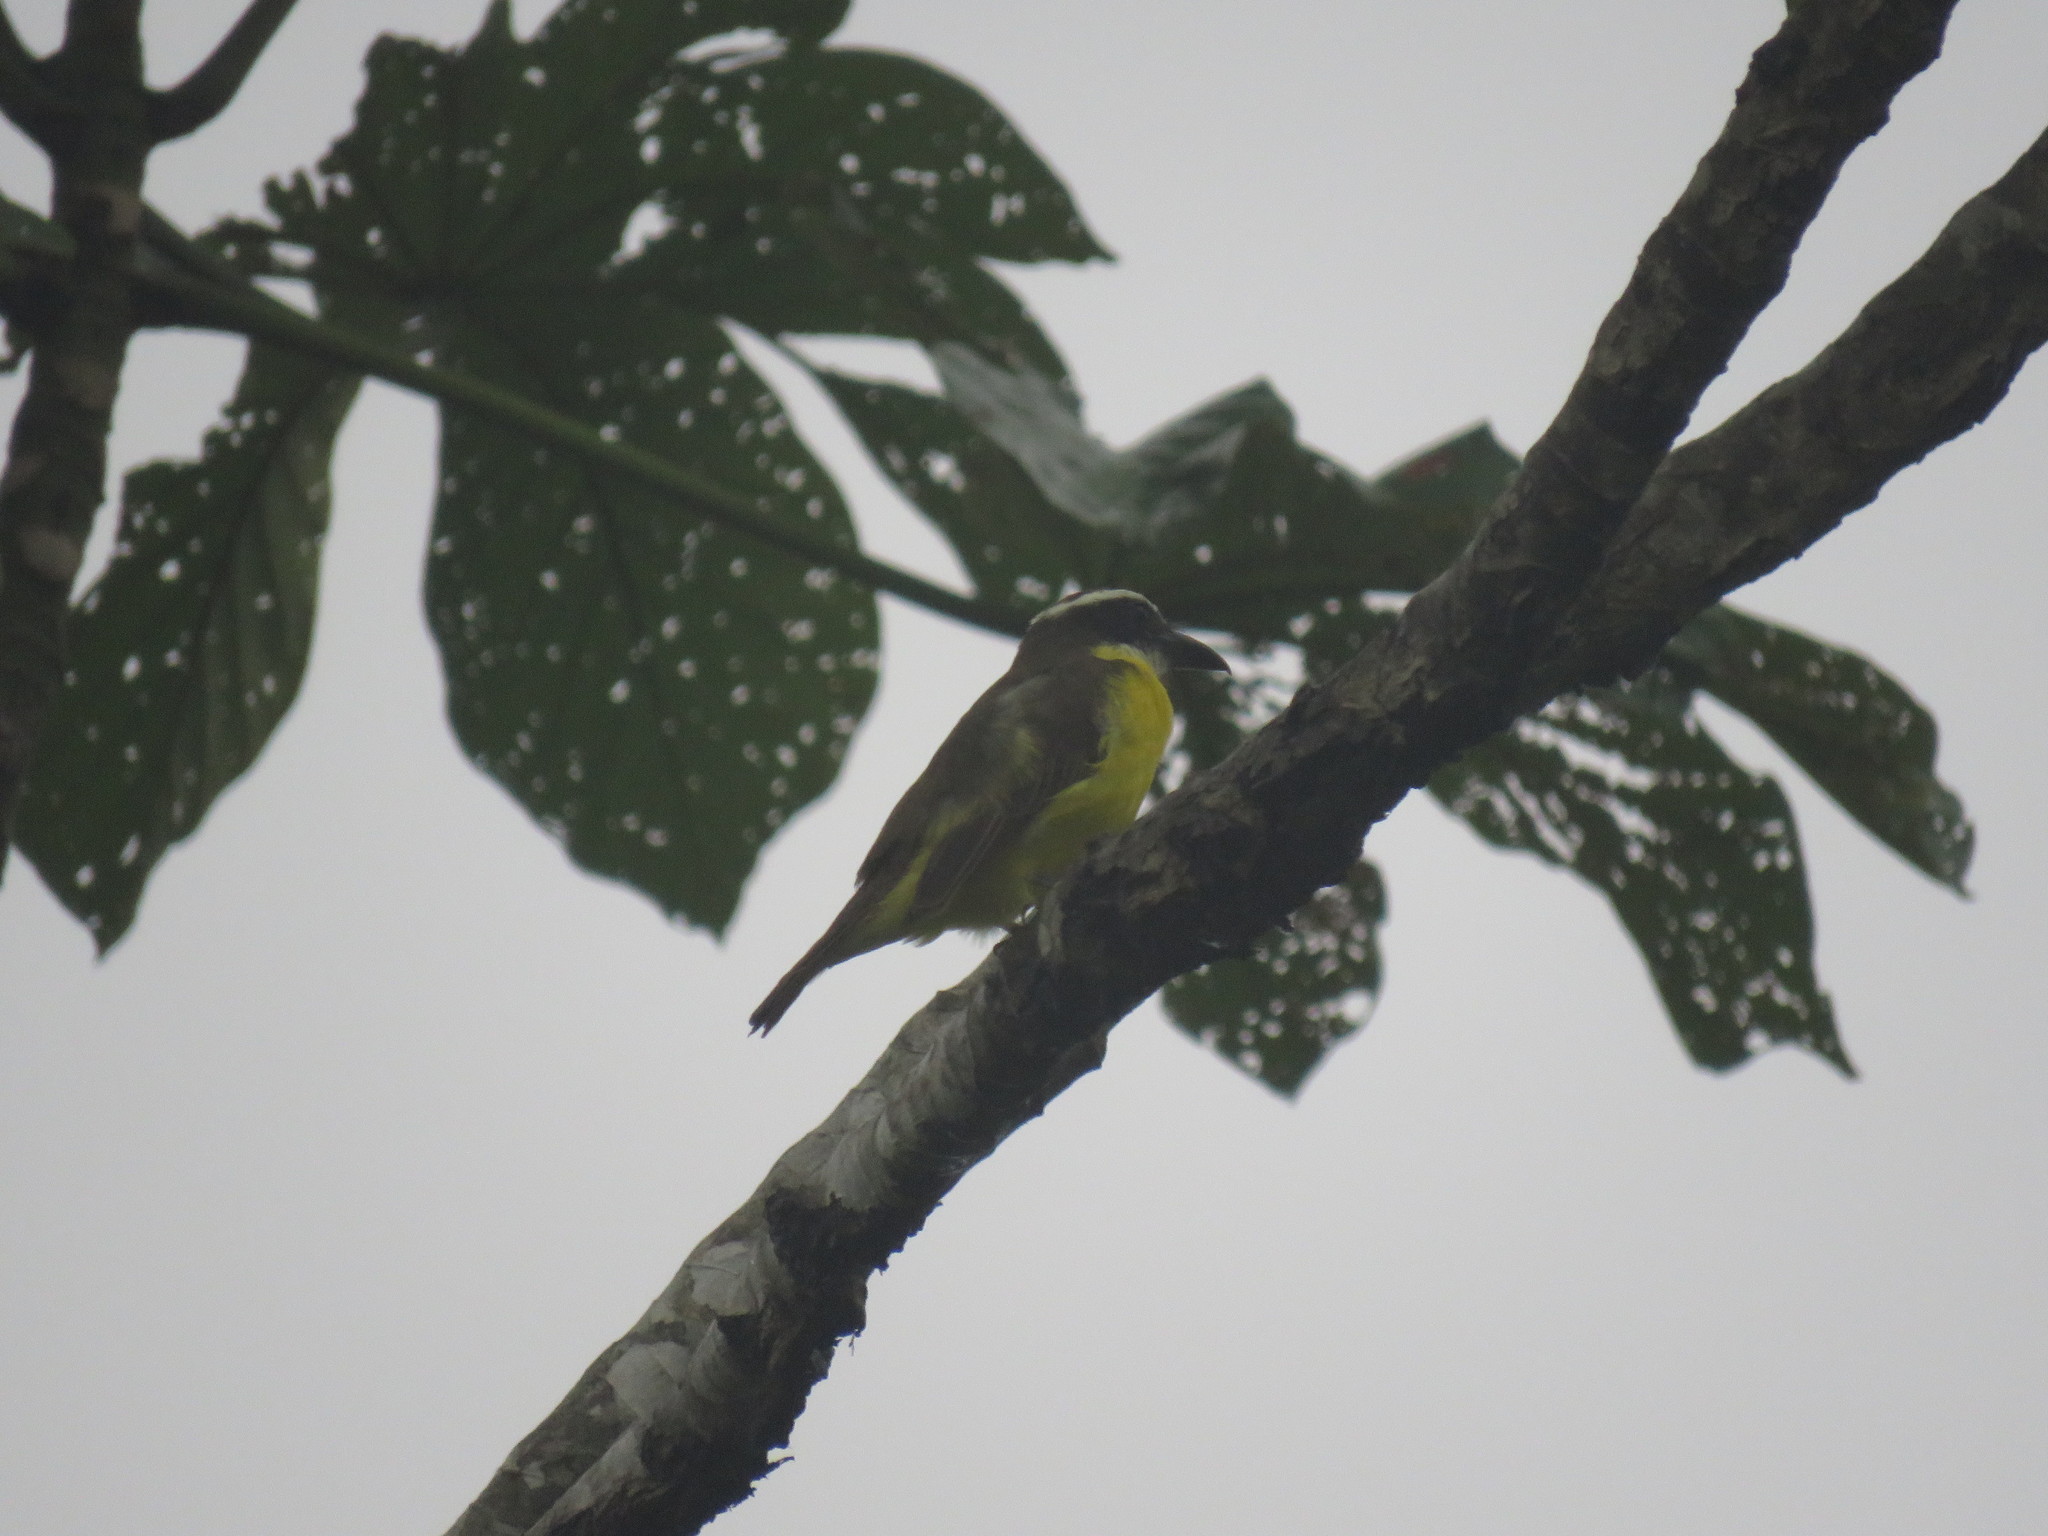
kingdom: Animalia
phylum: Chordata
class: Aves
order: Passeriformes
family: Tyrannidae
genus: Megarynchus
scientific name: Megarynchus pitangua
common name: Boat-billed flycatcher
